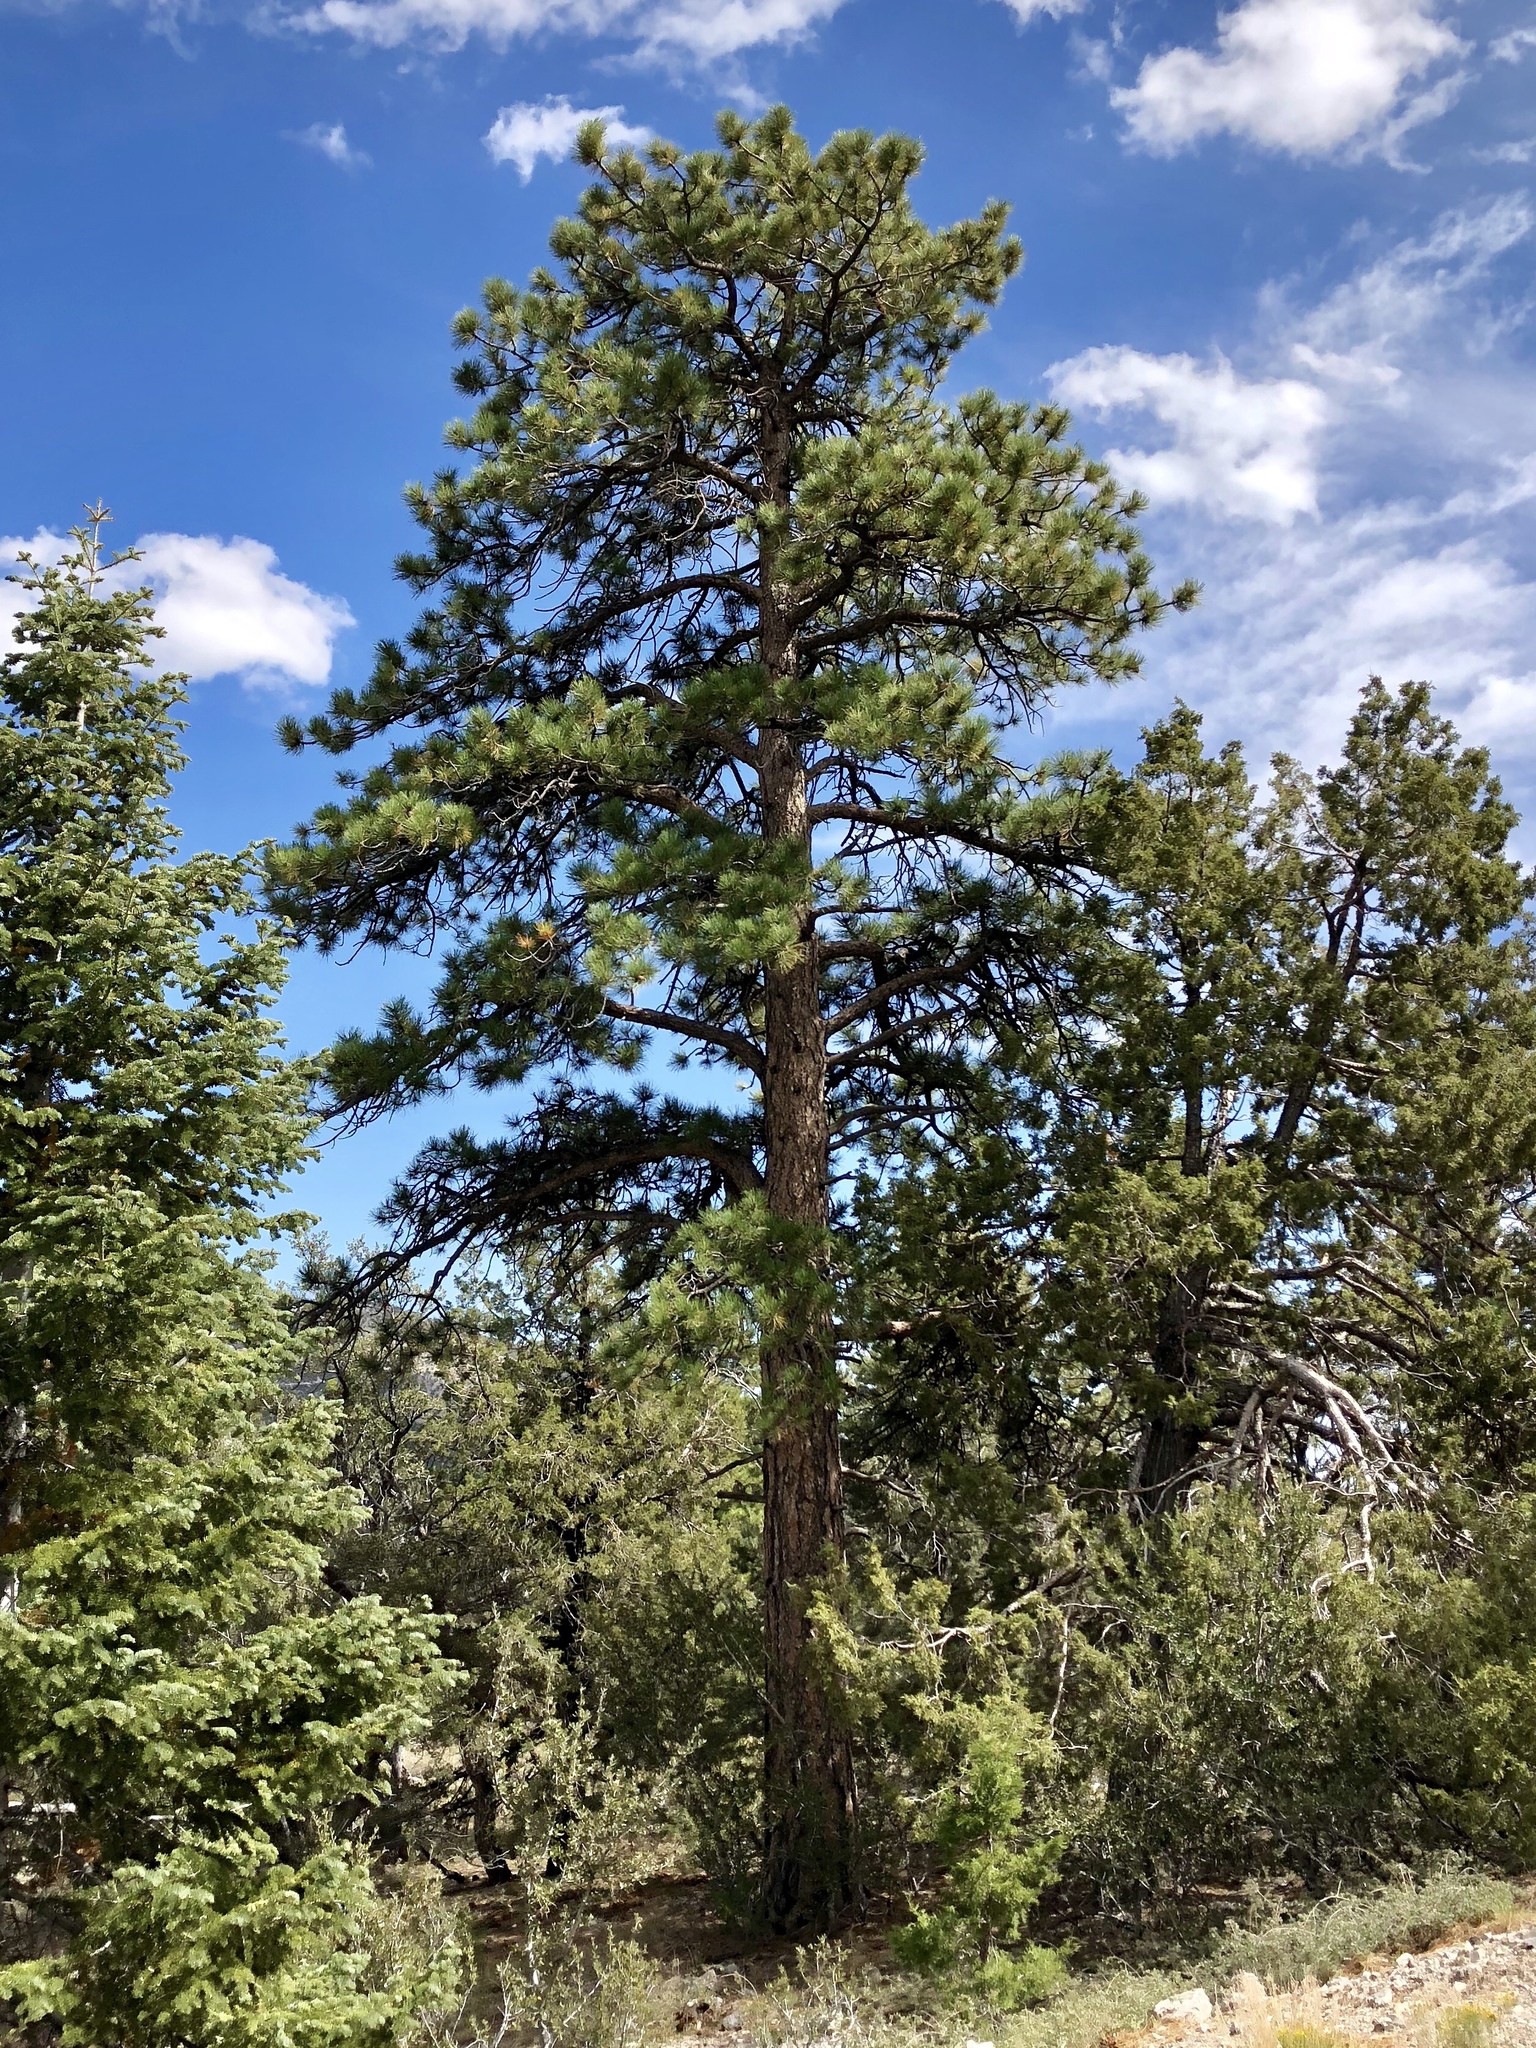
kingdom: Plantae
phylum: Tracheophyta
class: Pinopsida
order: Pinales
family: Pinaceae
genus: Pinus
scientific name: Pinus ponderosa
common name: Western yellow-pine
